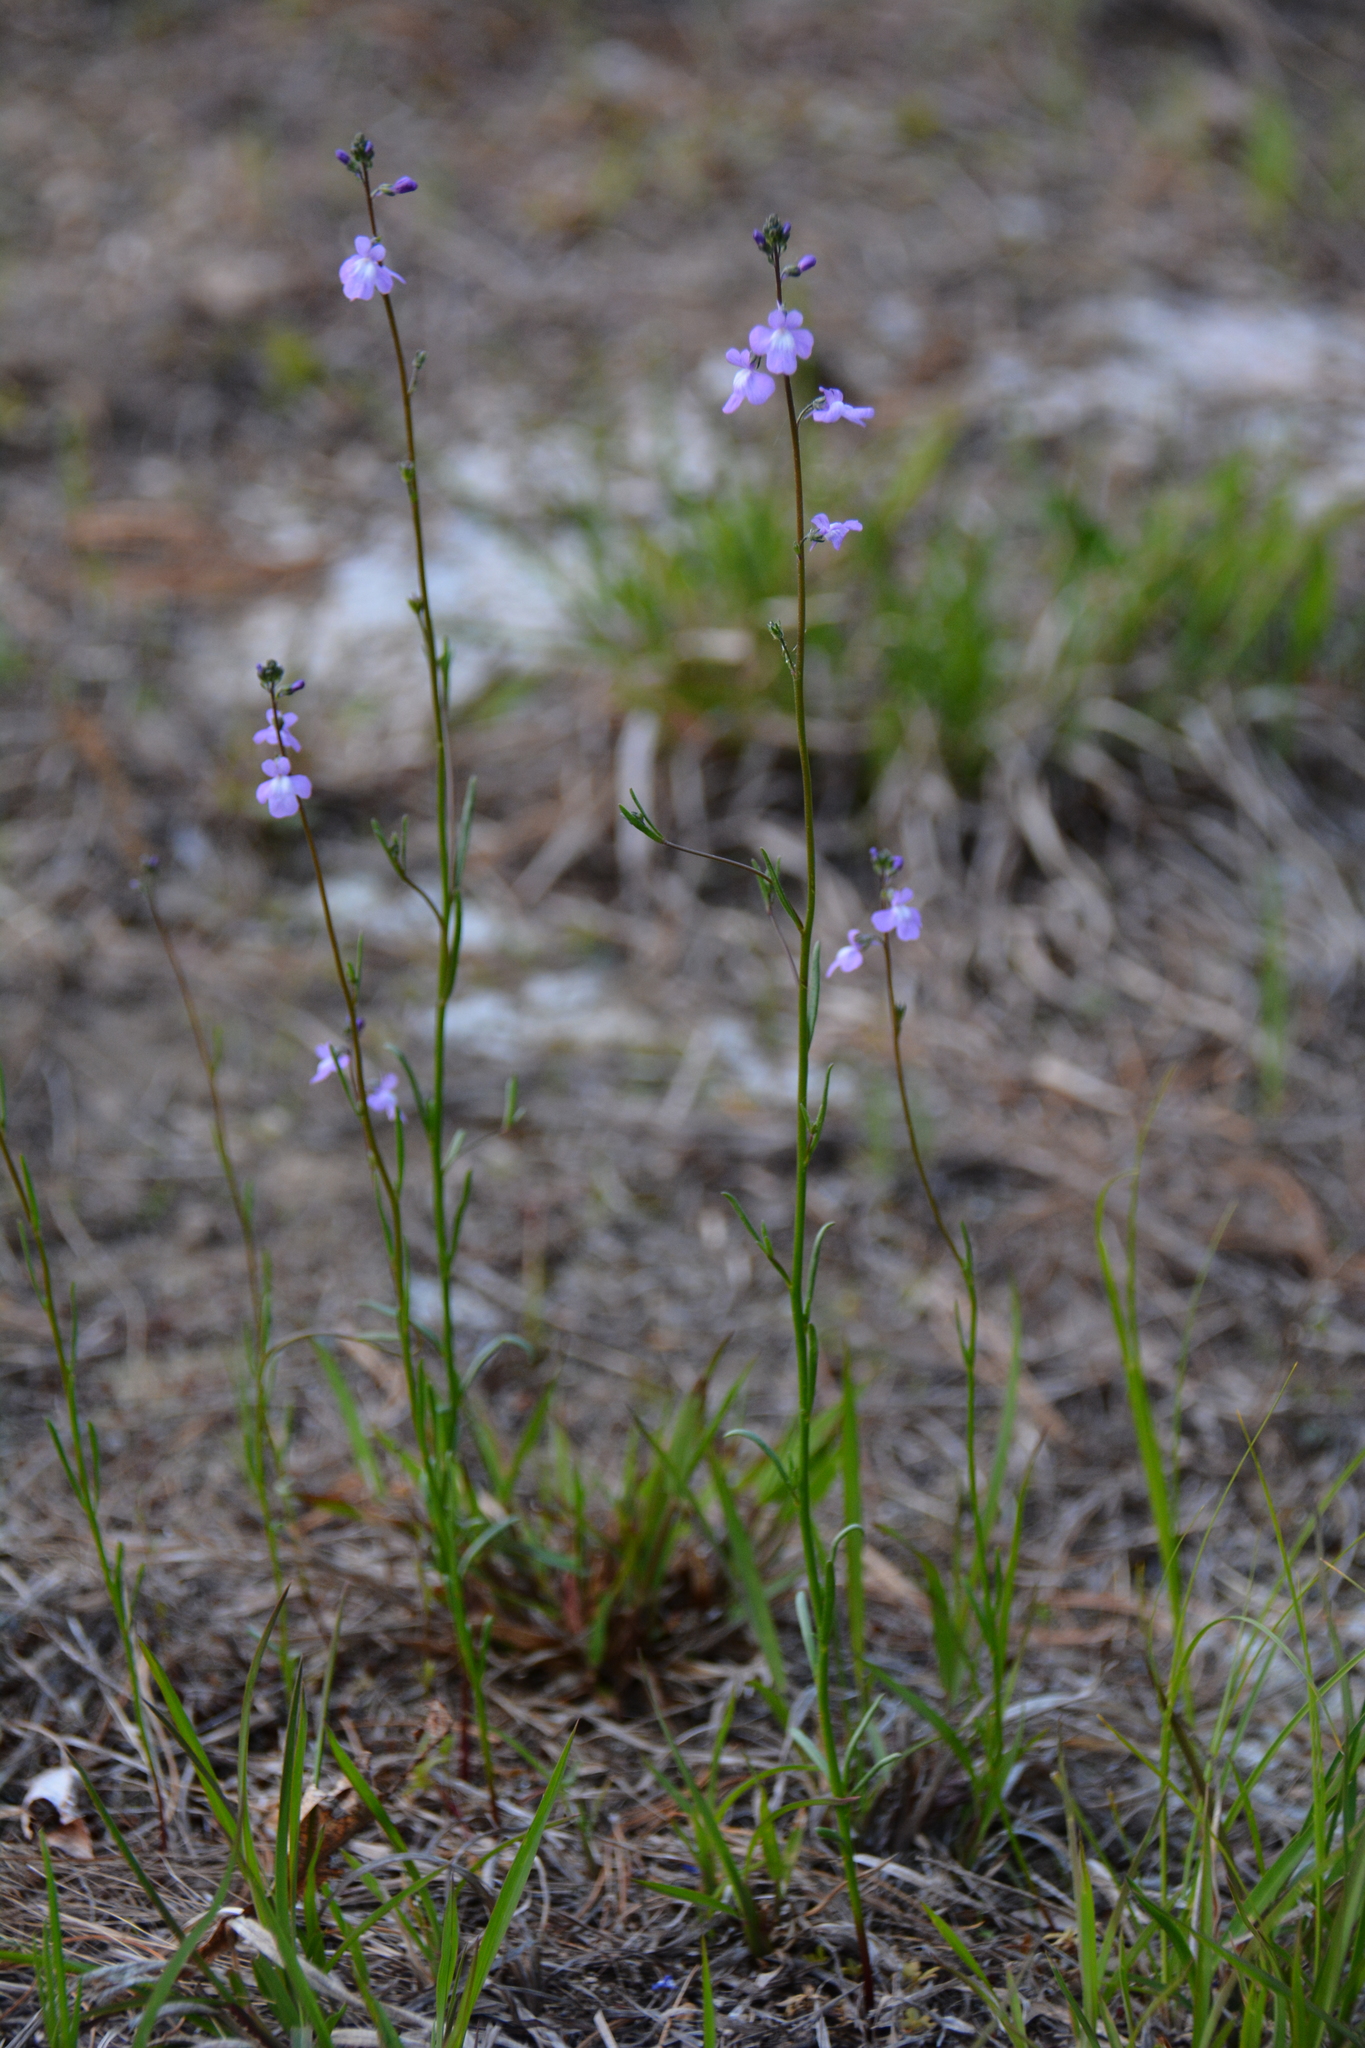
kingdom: Plantae
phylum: Tracheophyta
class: Magnoliopsida
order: Lamiales
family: Plantaginaceae
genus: Nuttallanthus
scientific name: Nuttallanthus canadensis
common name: Blue toadflax
